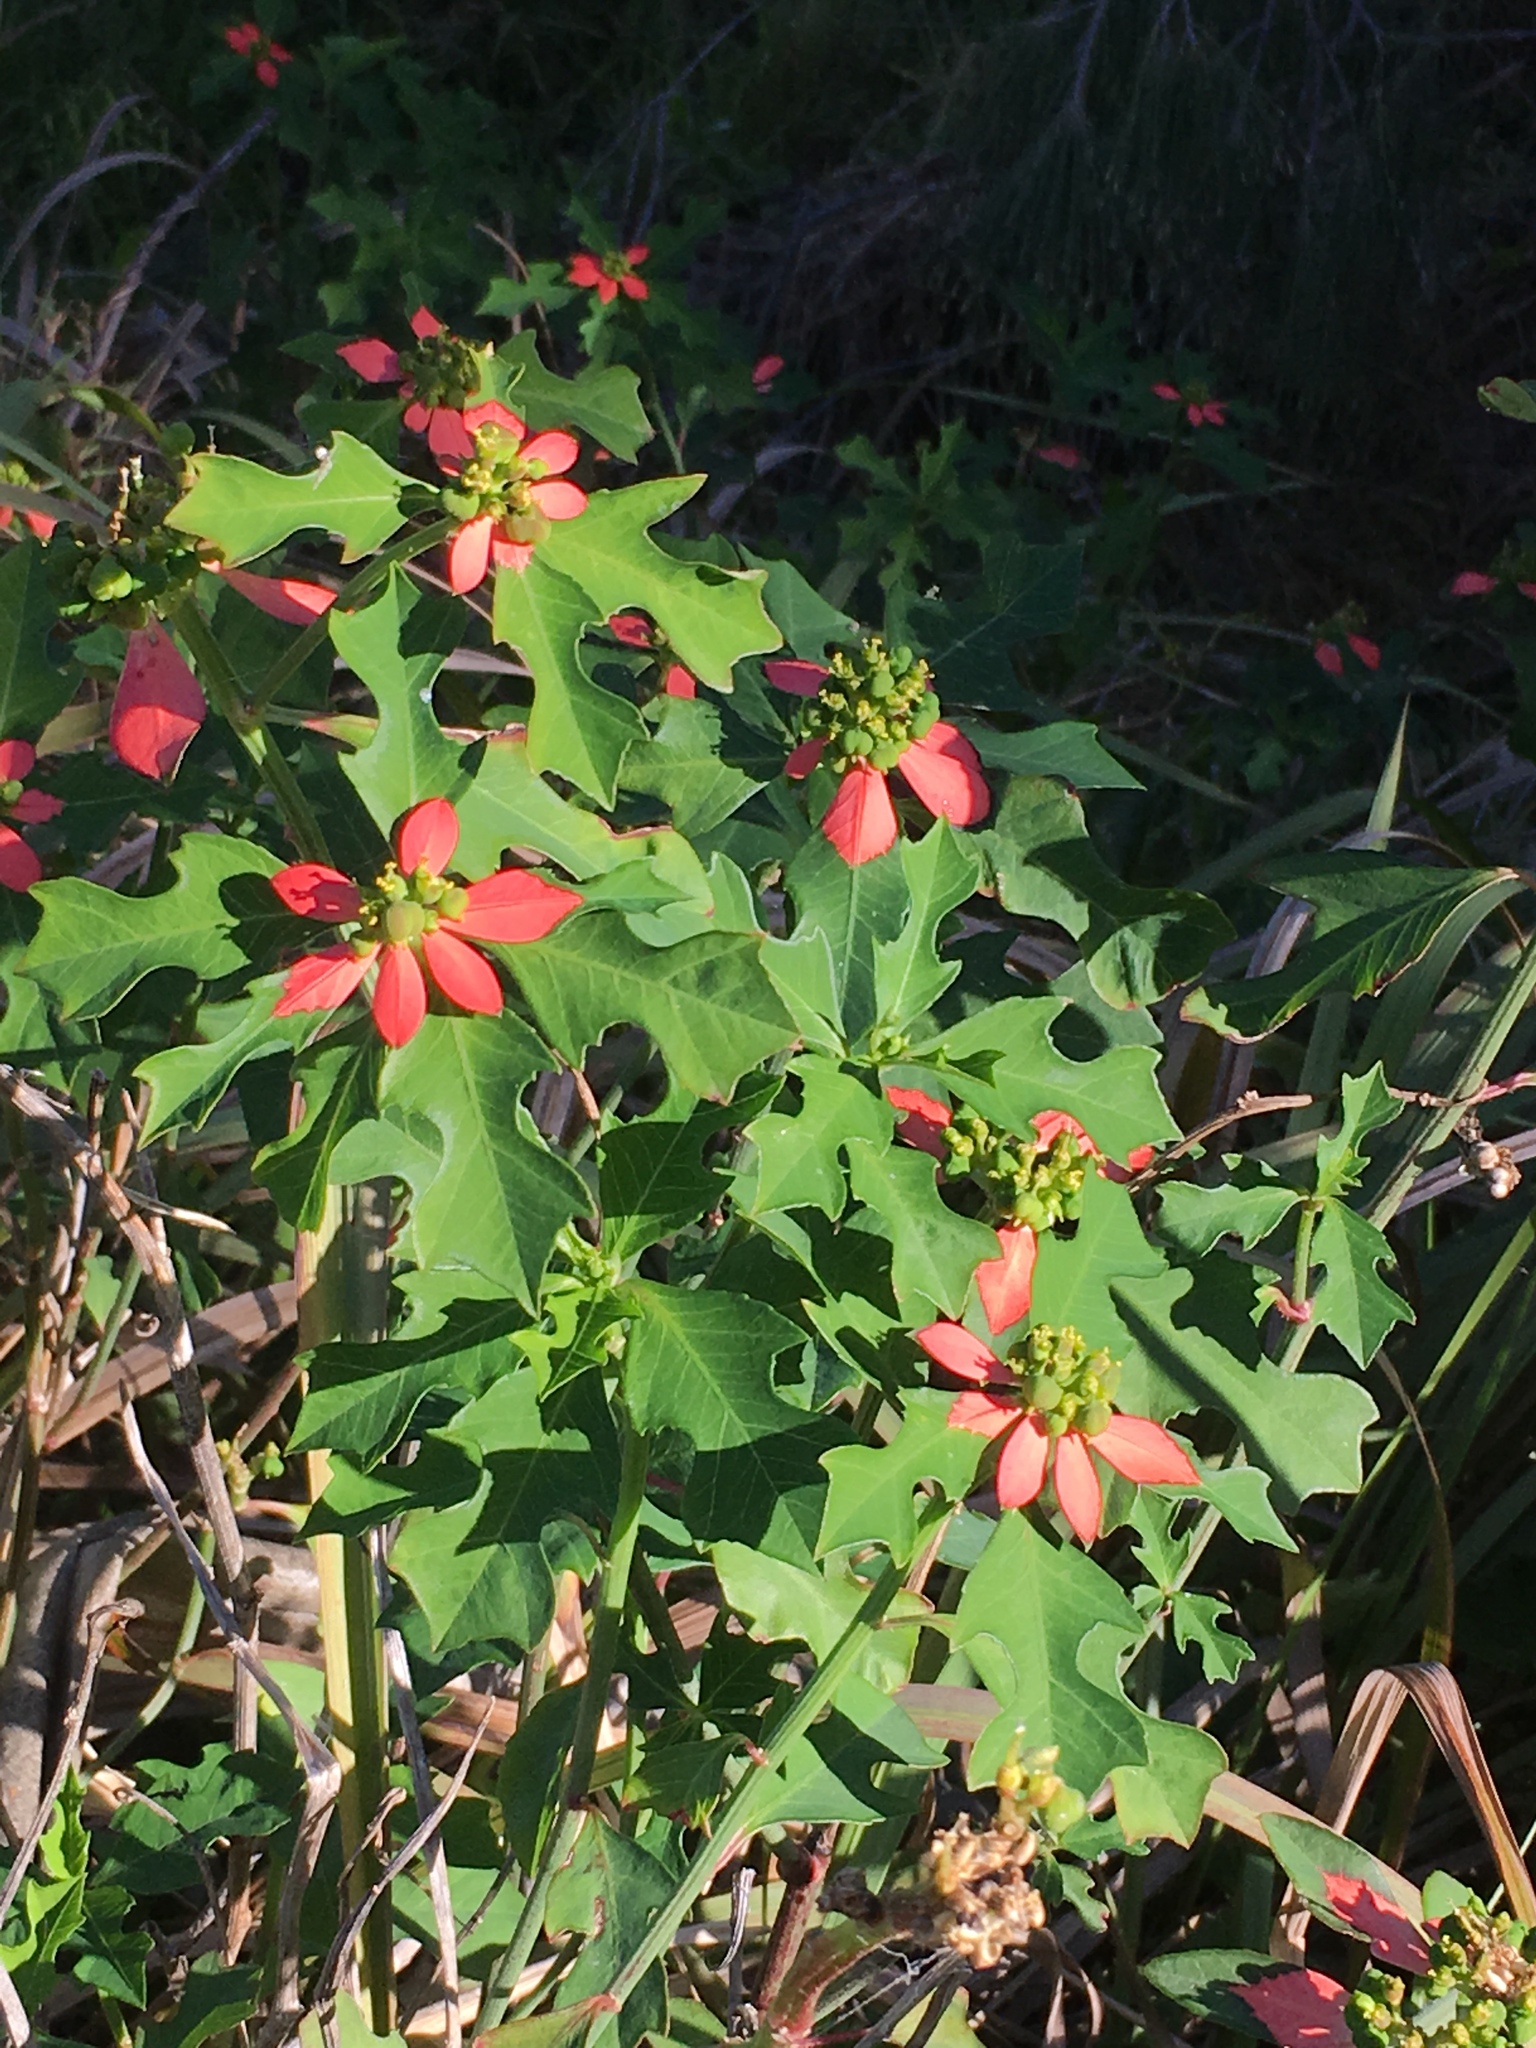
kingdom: Plantae
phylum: Tracheophyta
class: Magnoliopsida
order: Malpighiales
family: Euphorbiaceae
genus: Euphorbia
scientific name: Euphorbia heterophylla
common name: Mexican fireplant
